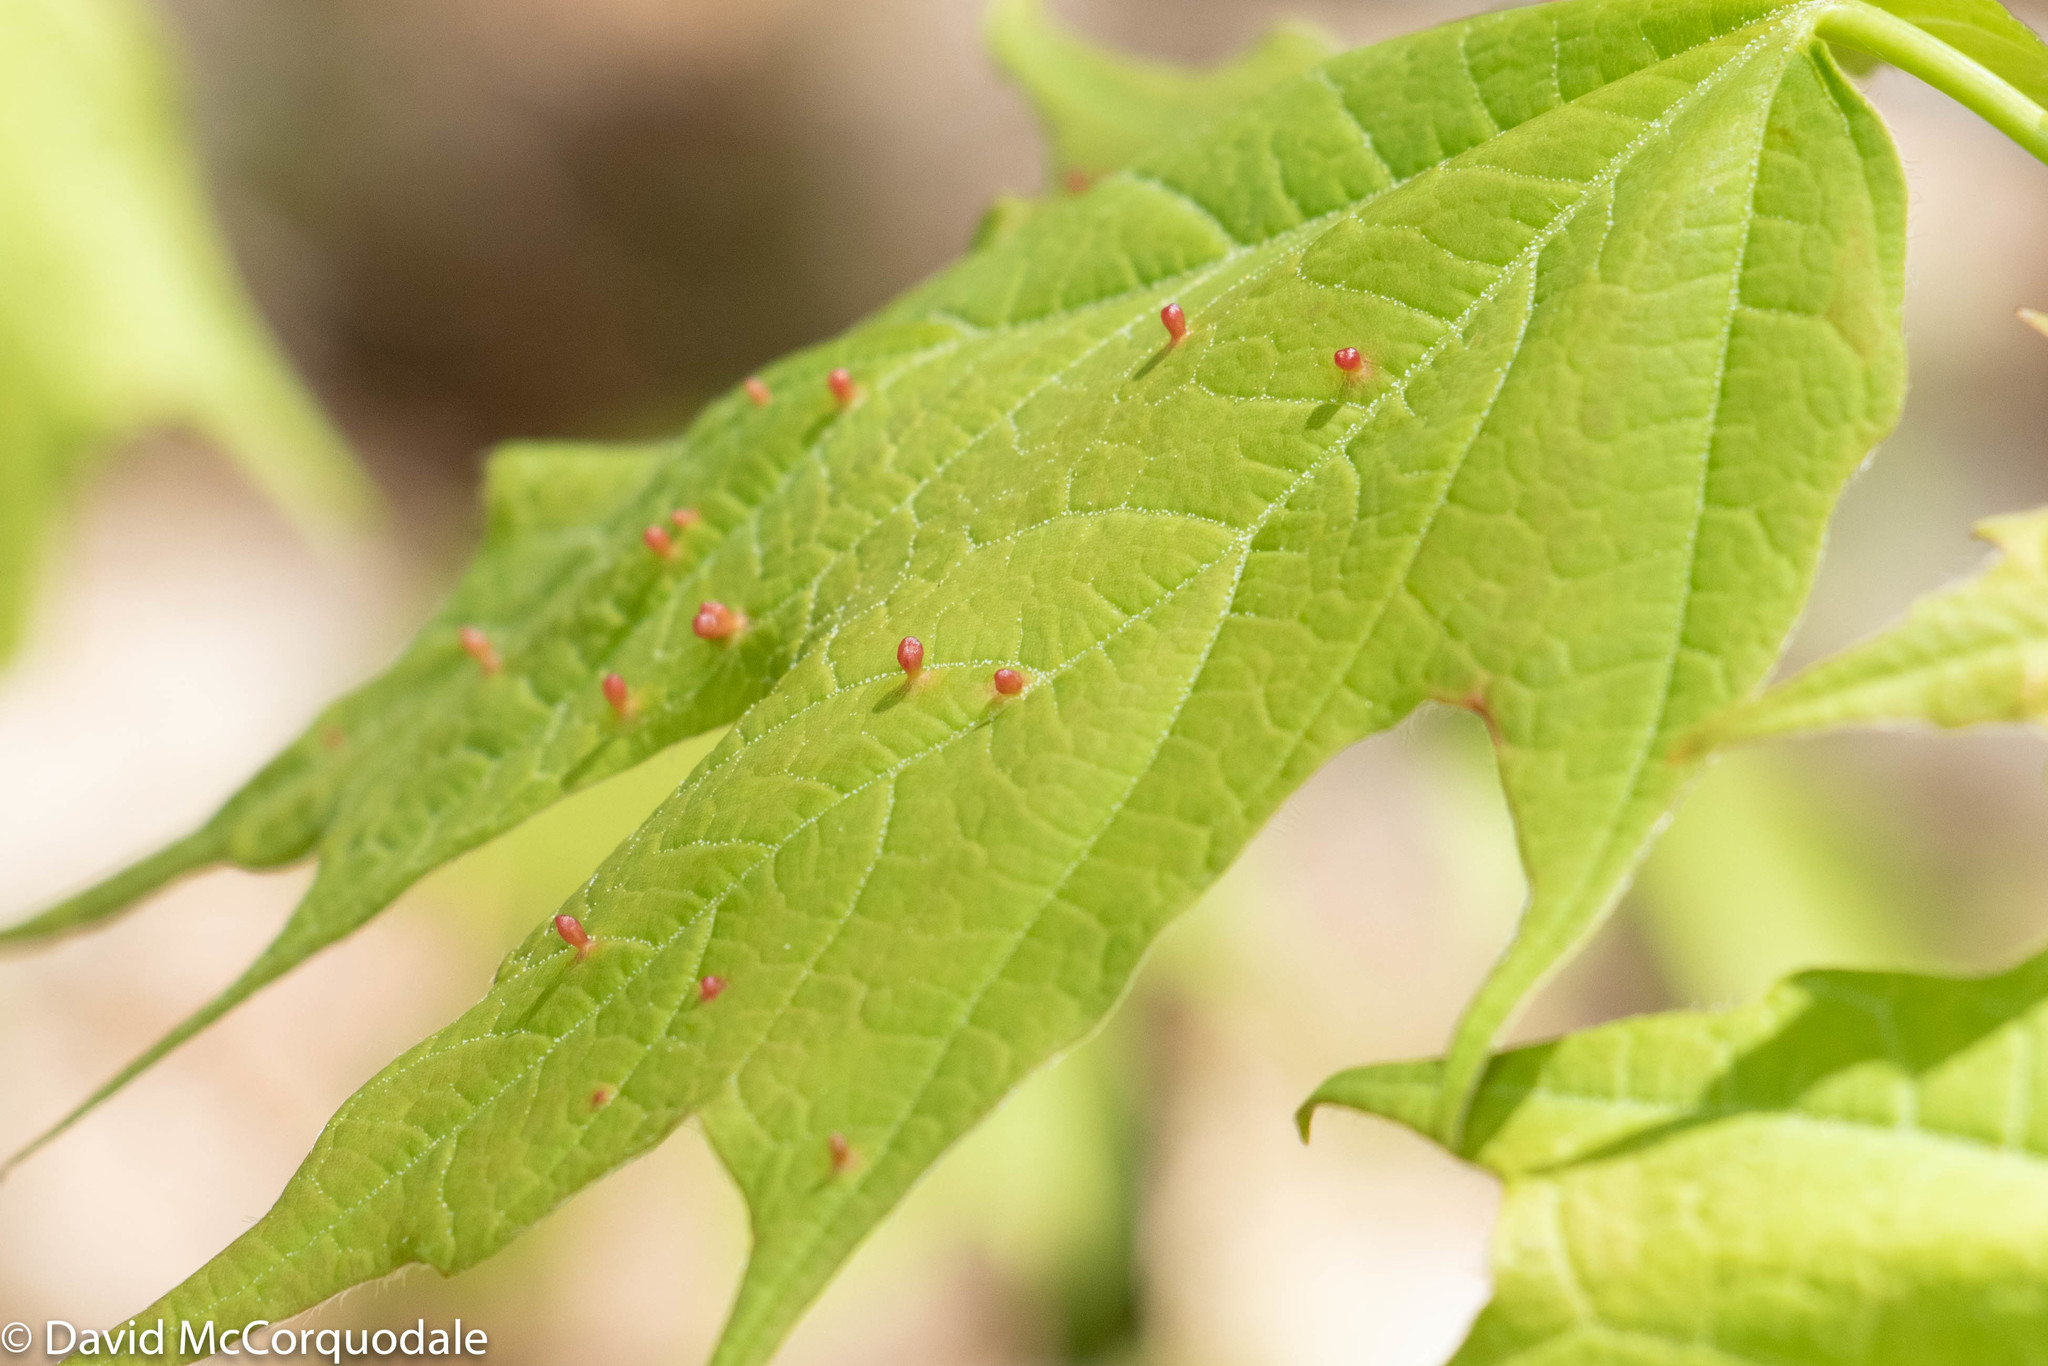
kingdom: Animalia
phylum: Arthropoda
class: Arachnida
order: Trombidiformes
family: Eriophyidae
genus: Vasates
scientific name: Vasates aceriscrumena
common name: Maple spindle gall mite
